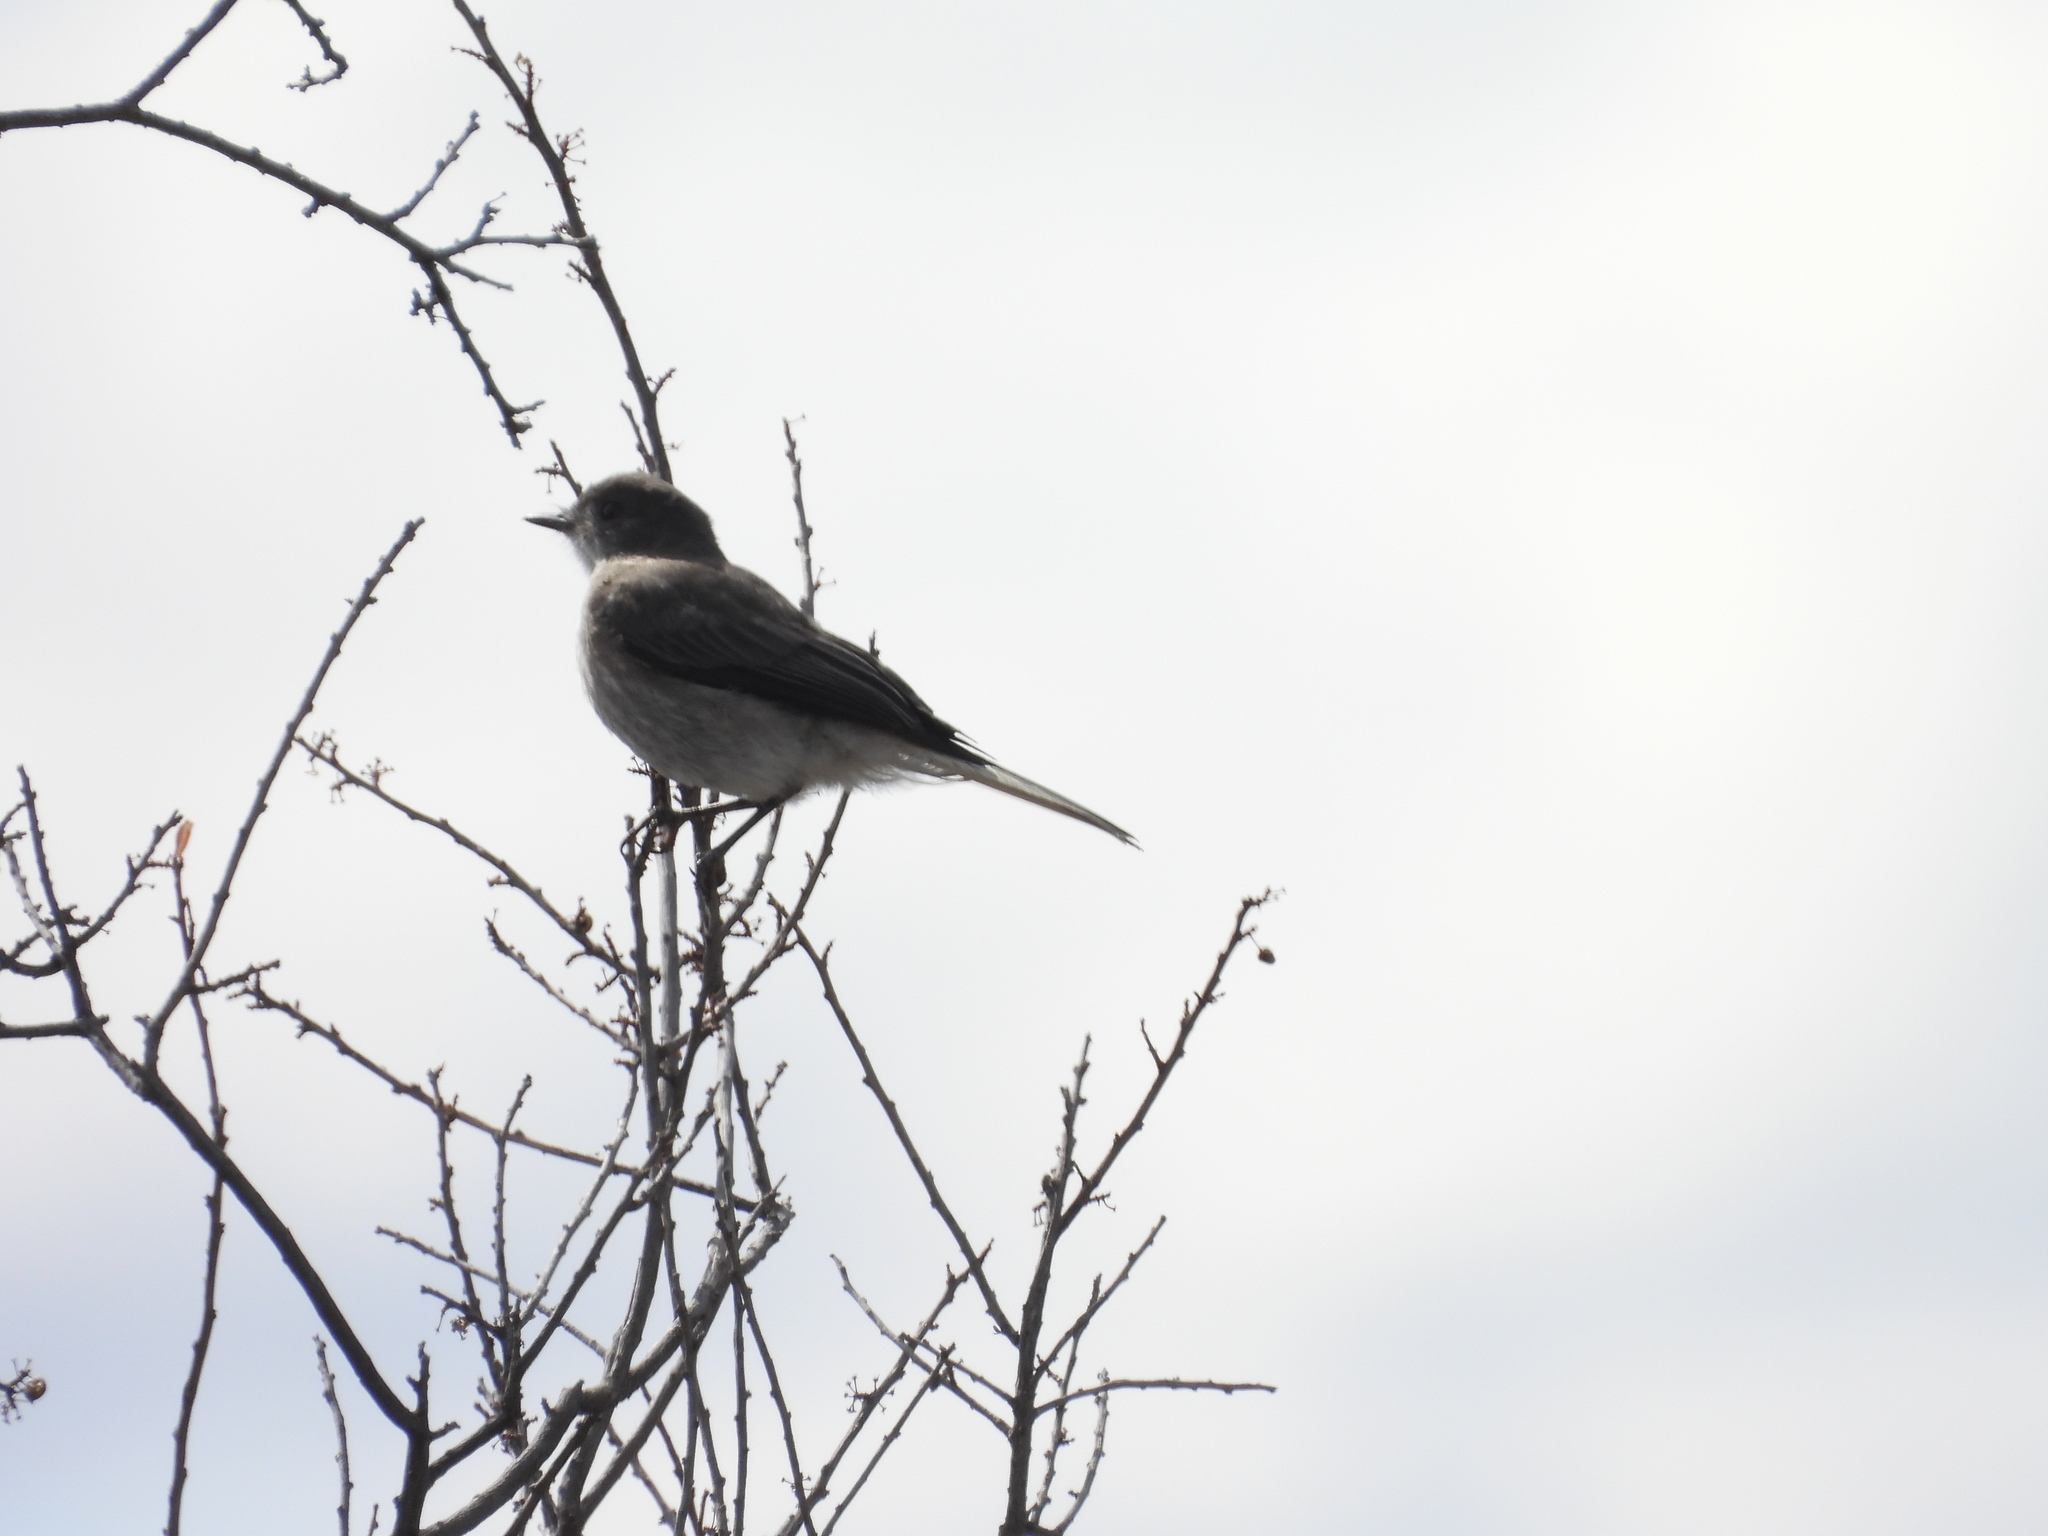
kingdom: Animalia
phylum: Chordata
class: Aves
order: Passeriformes
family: Tyrannidae
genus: Xolmis
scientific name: Xolmis pyrope
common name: Fire-eyed diucon
